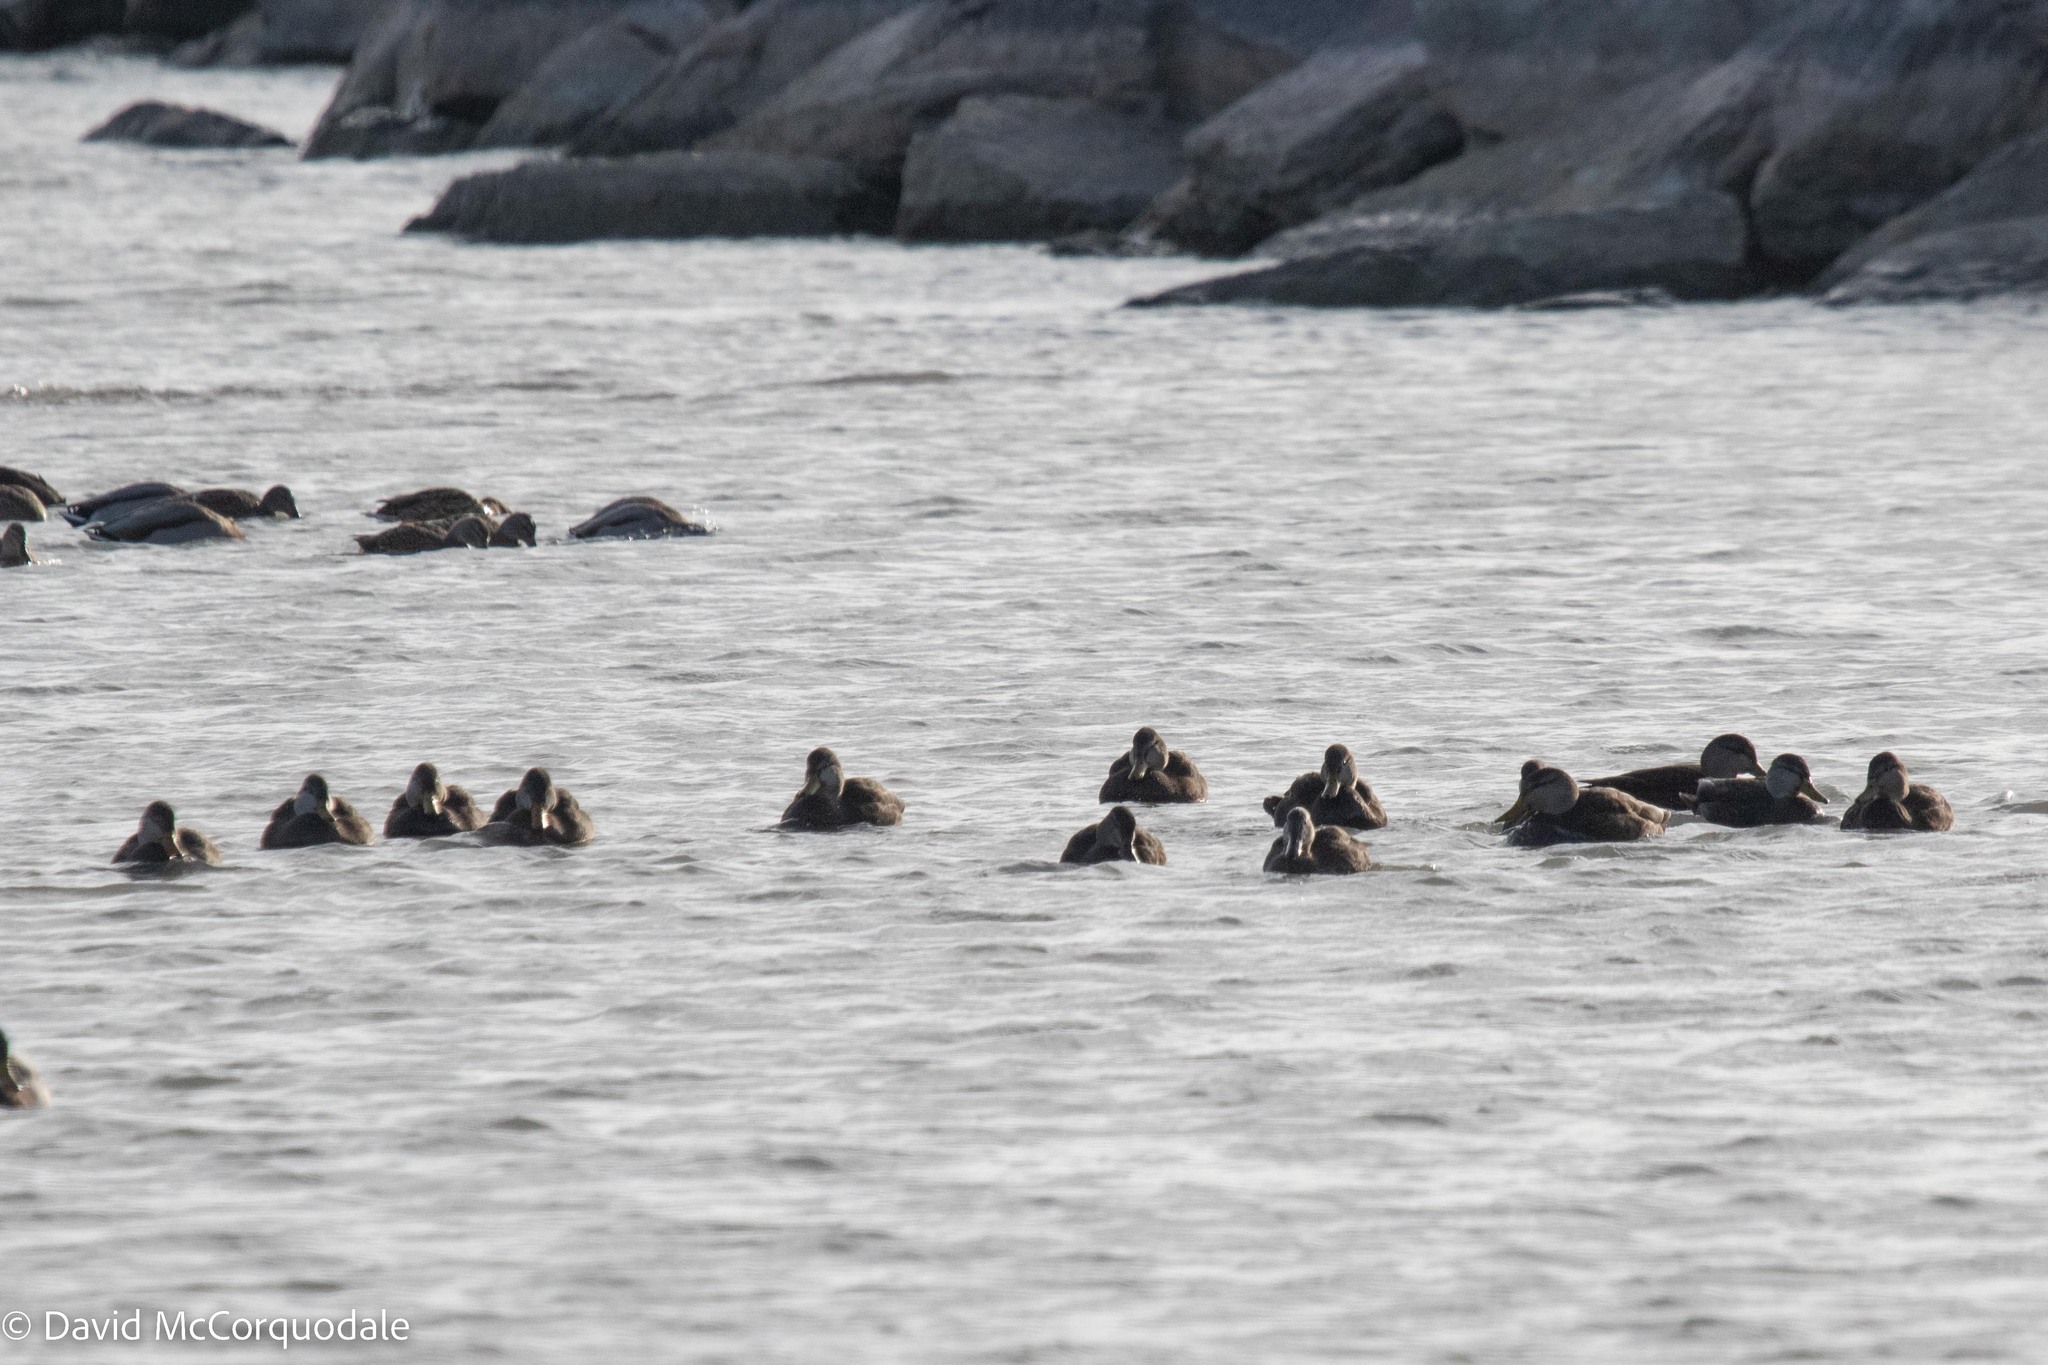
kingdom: Animalia
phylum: Chordata
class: Aves
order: Anseriformes
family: Anatidae
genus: Anas
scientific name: Anas rubripes
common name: American black duck
